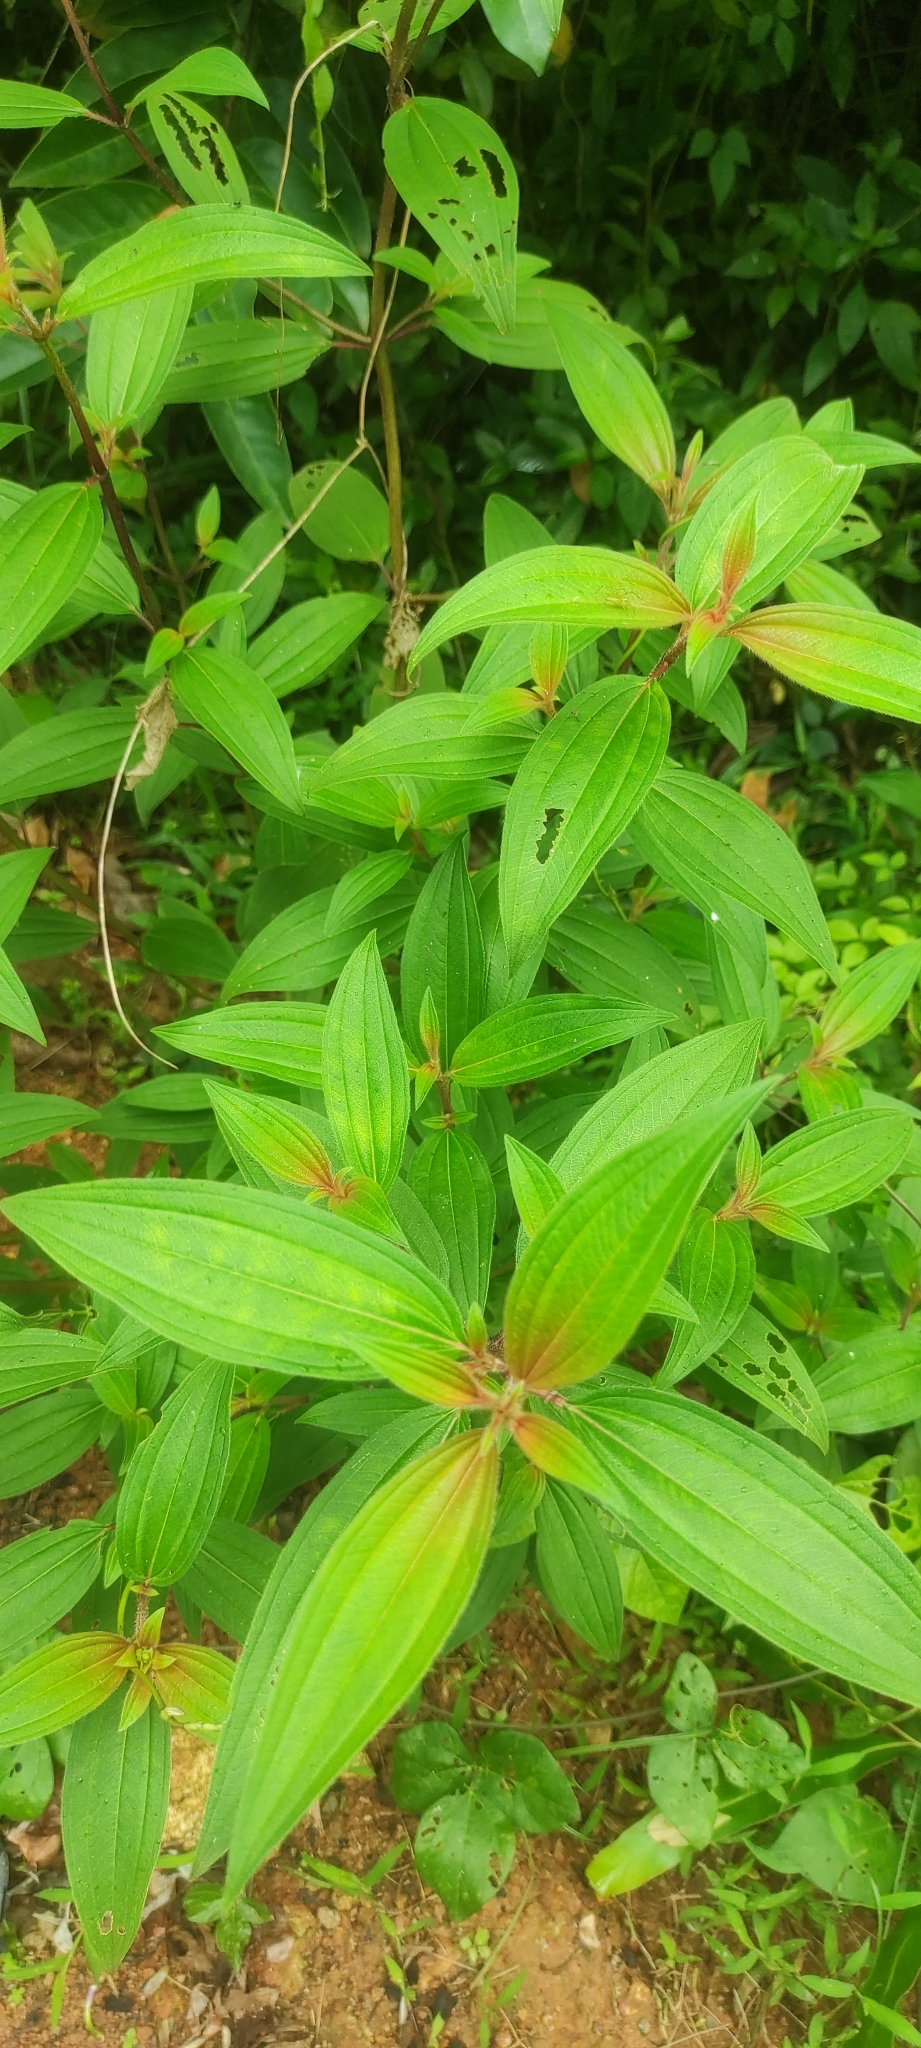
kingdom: Plantae
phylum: Tracheophyta
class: Magnoliopsida
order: Myrtales
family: Melastomataceae
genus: Melastoma
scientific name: Melastoma malabathricum
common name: Indian-rhododendron
